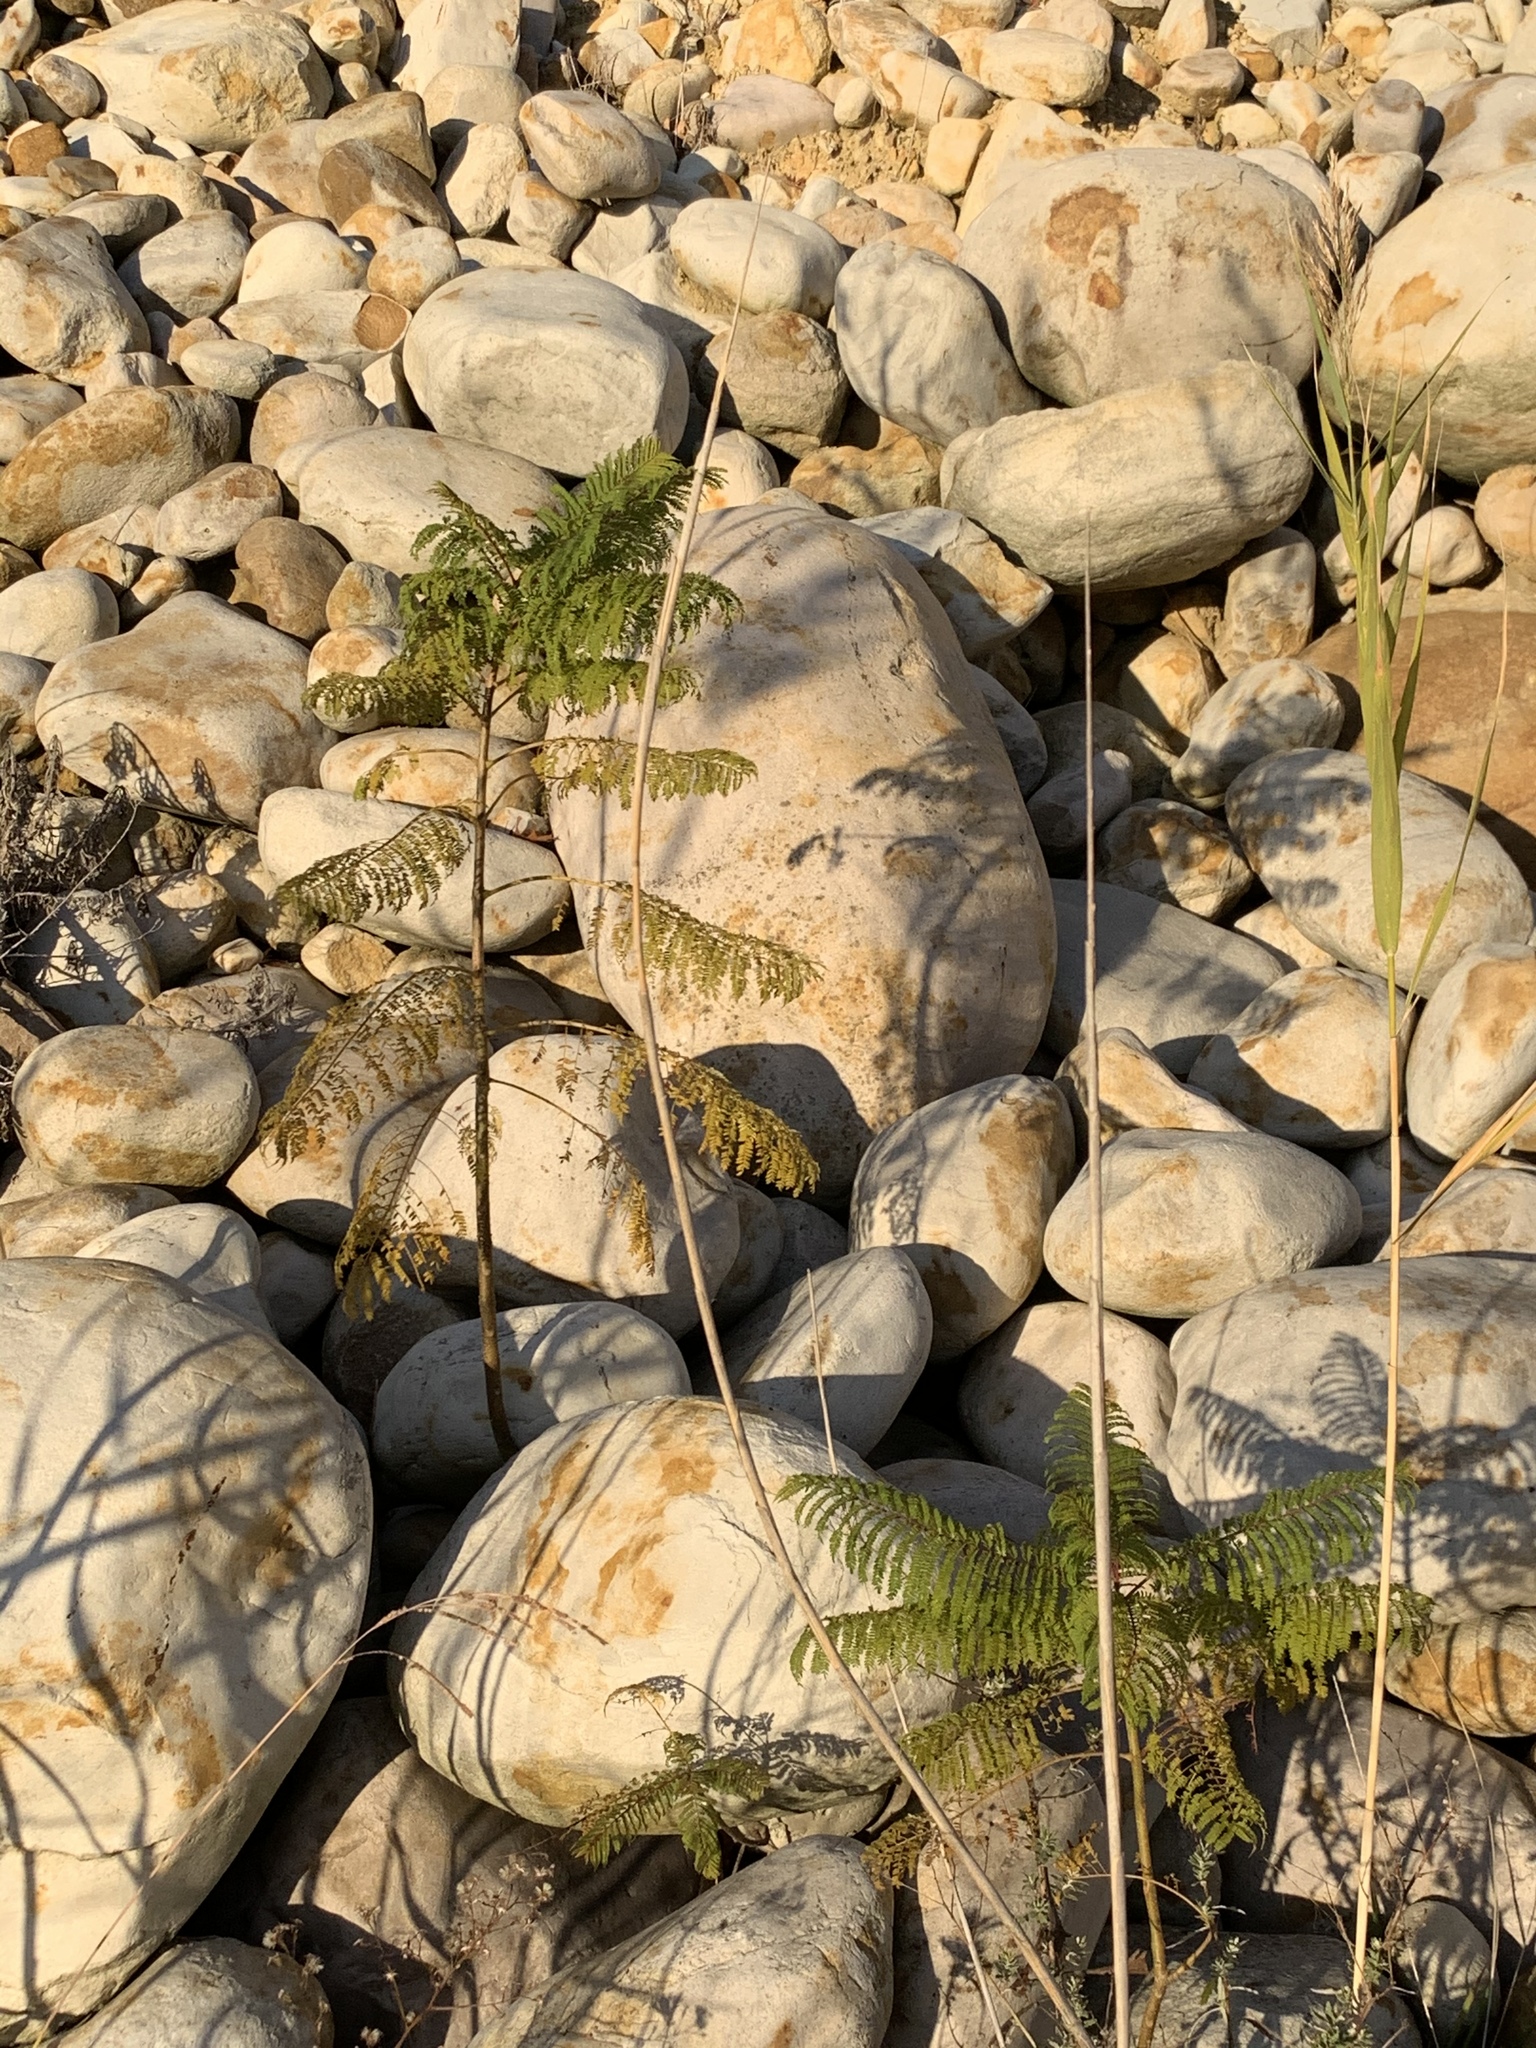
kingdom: Plantae
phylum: Tracheophyta
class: Magnoliopsida
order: Lamiales
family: Bignoniaceae
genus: Jacaranda
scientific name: Jacaranda mimosifolia
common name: Black poui
